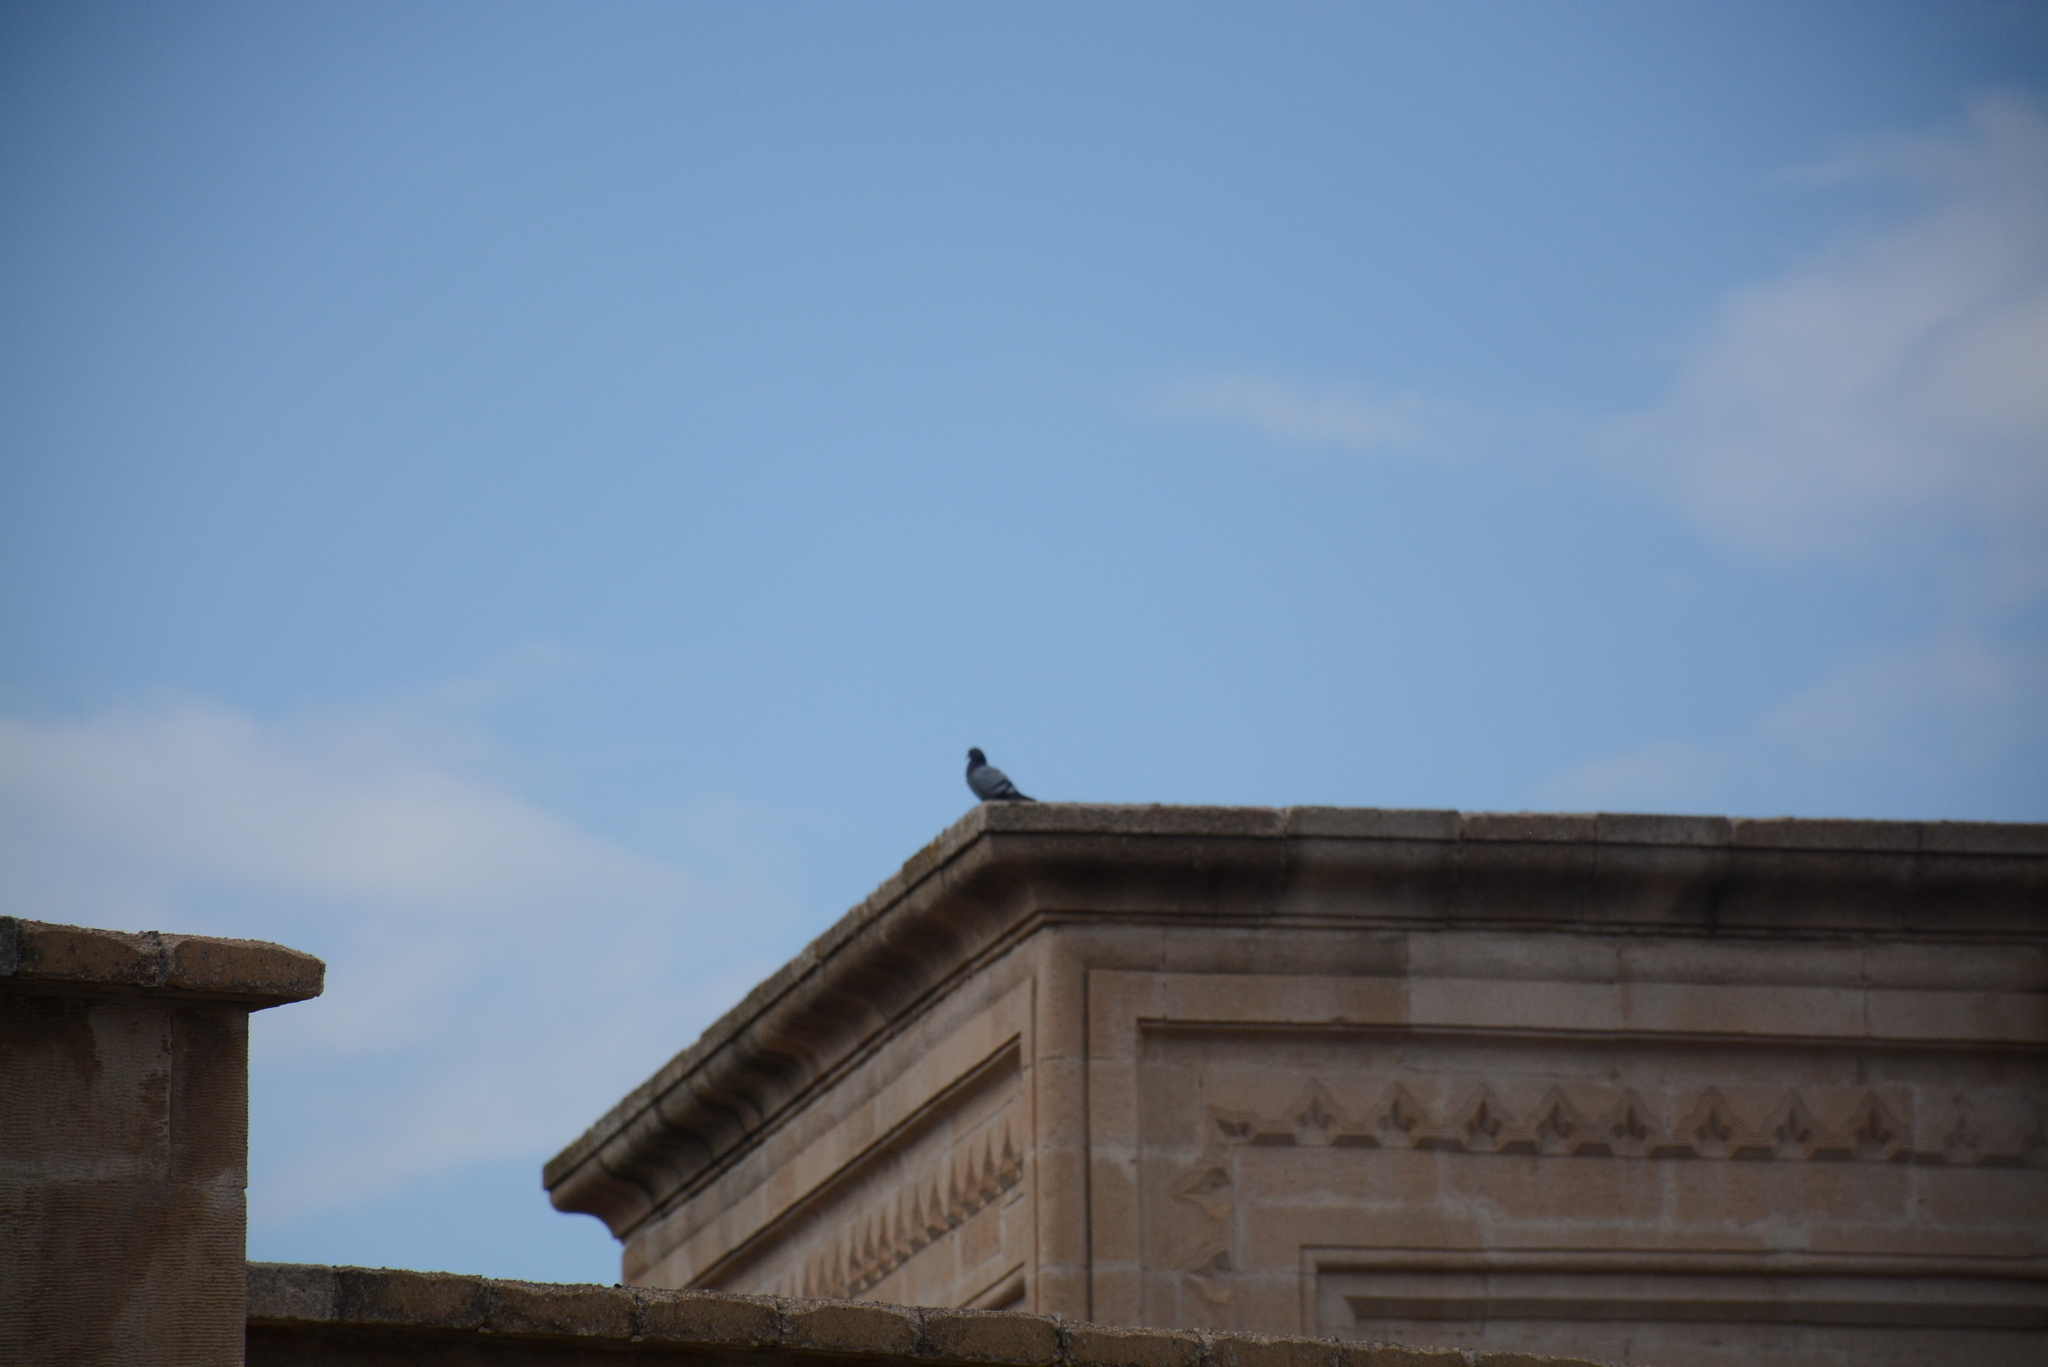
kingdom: Animalia
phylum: Chordata
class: Aves
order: Columbiformes
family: Columbidae
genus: Columba
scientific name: Columba livia
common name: Rock pigeon
